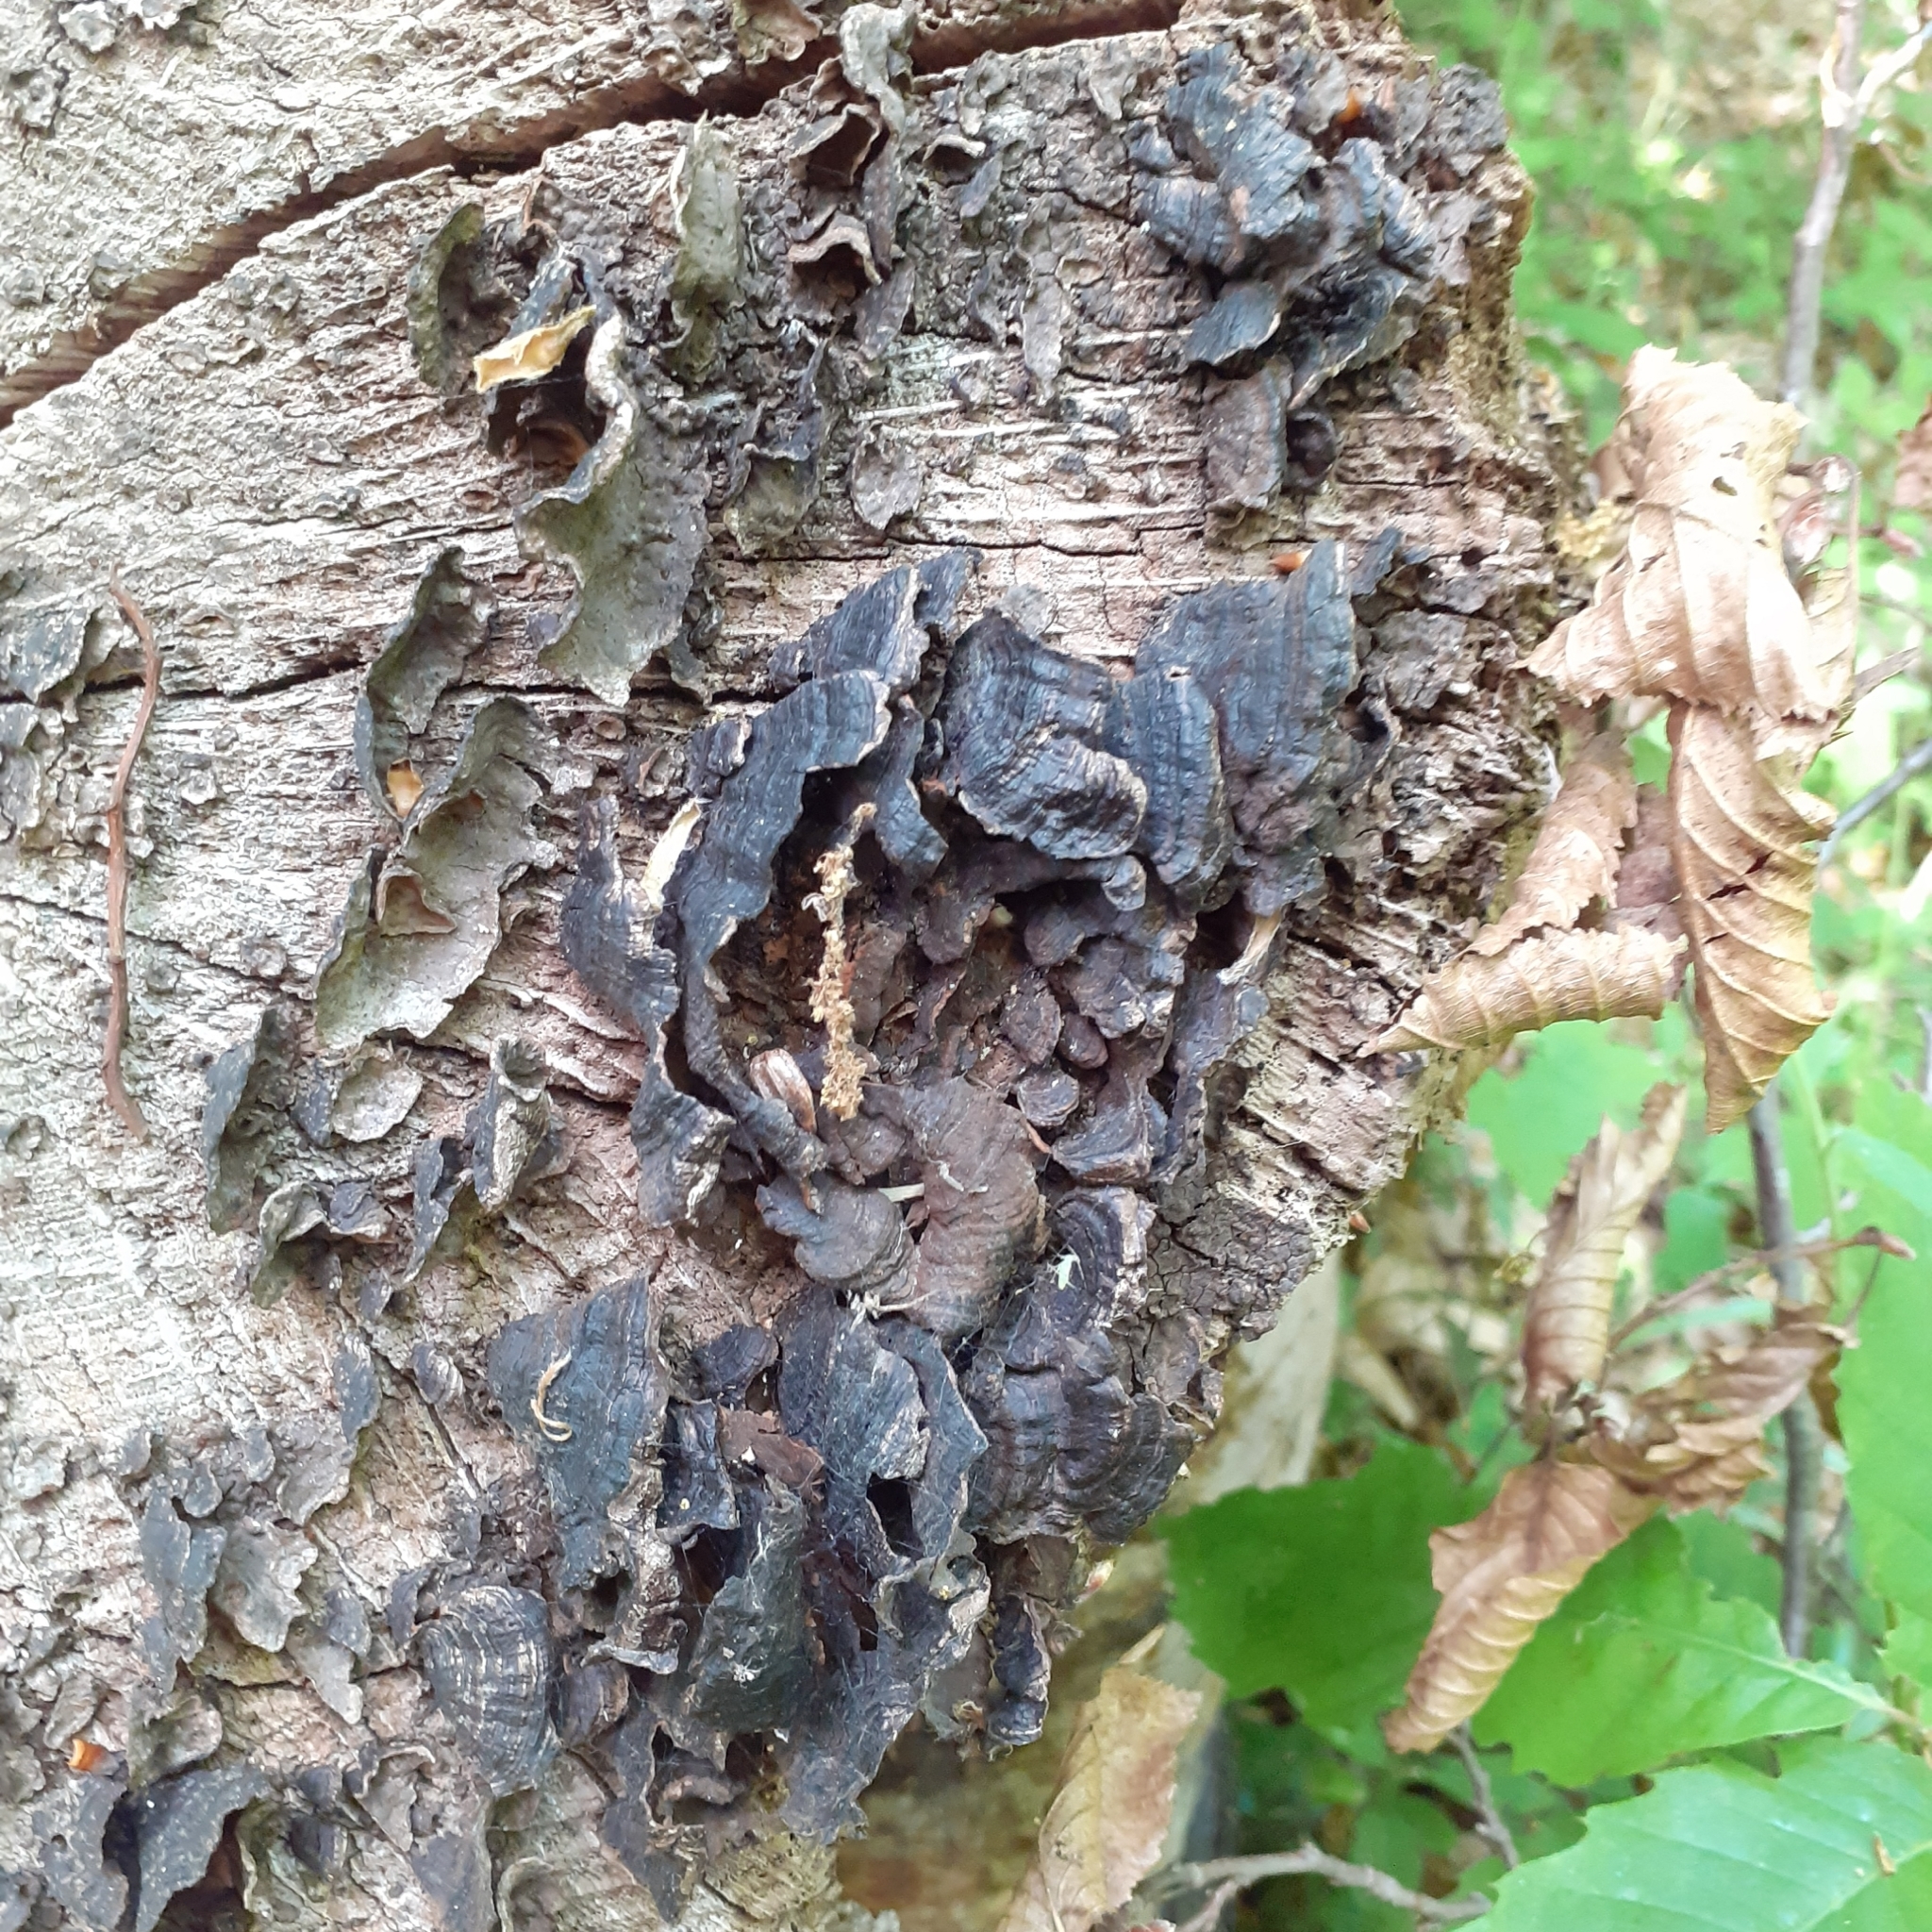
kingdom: Fungi
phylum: Basidiomycota
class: Agaricomycetes
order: Hymenochaetales
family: Hymenochaetaceae
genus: Hymenochaete
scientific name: Hymenochaete rubiginosa
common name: Oak curtain crust
